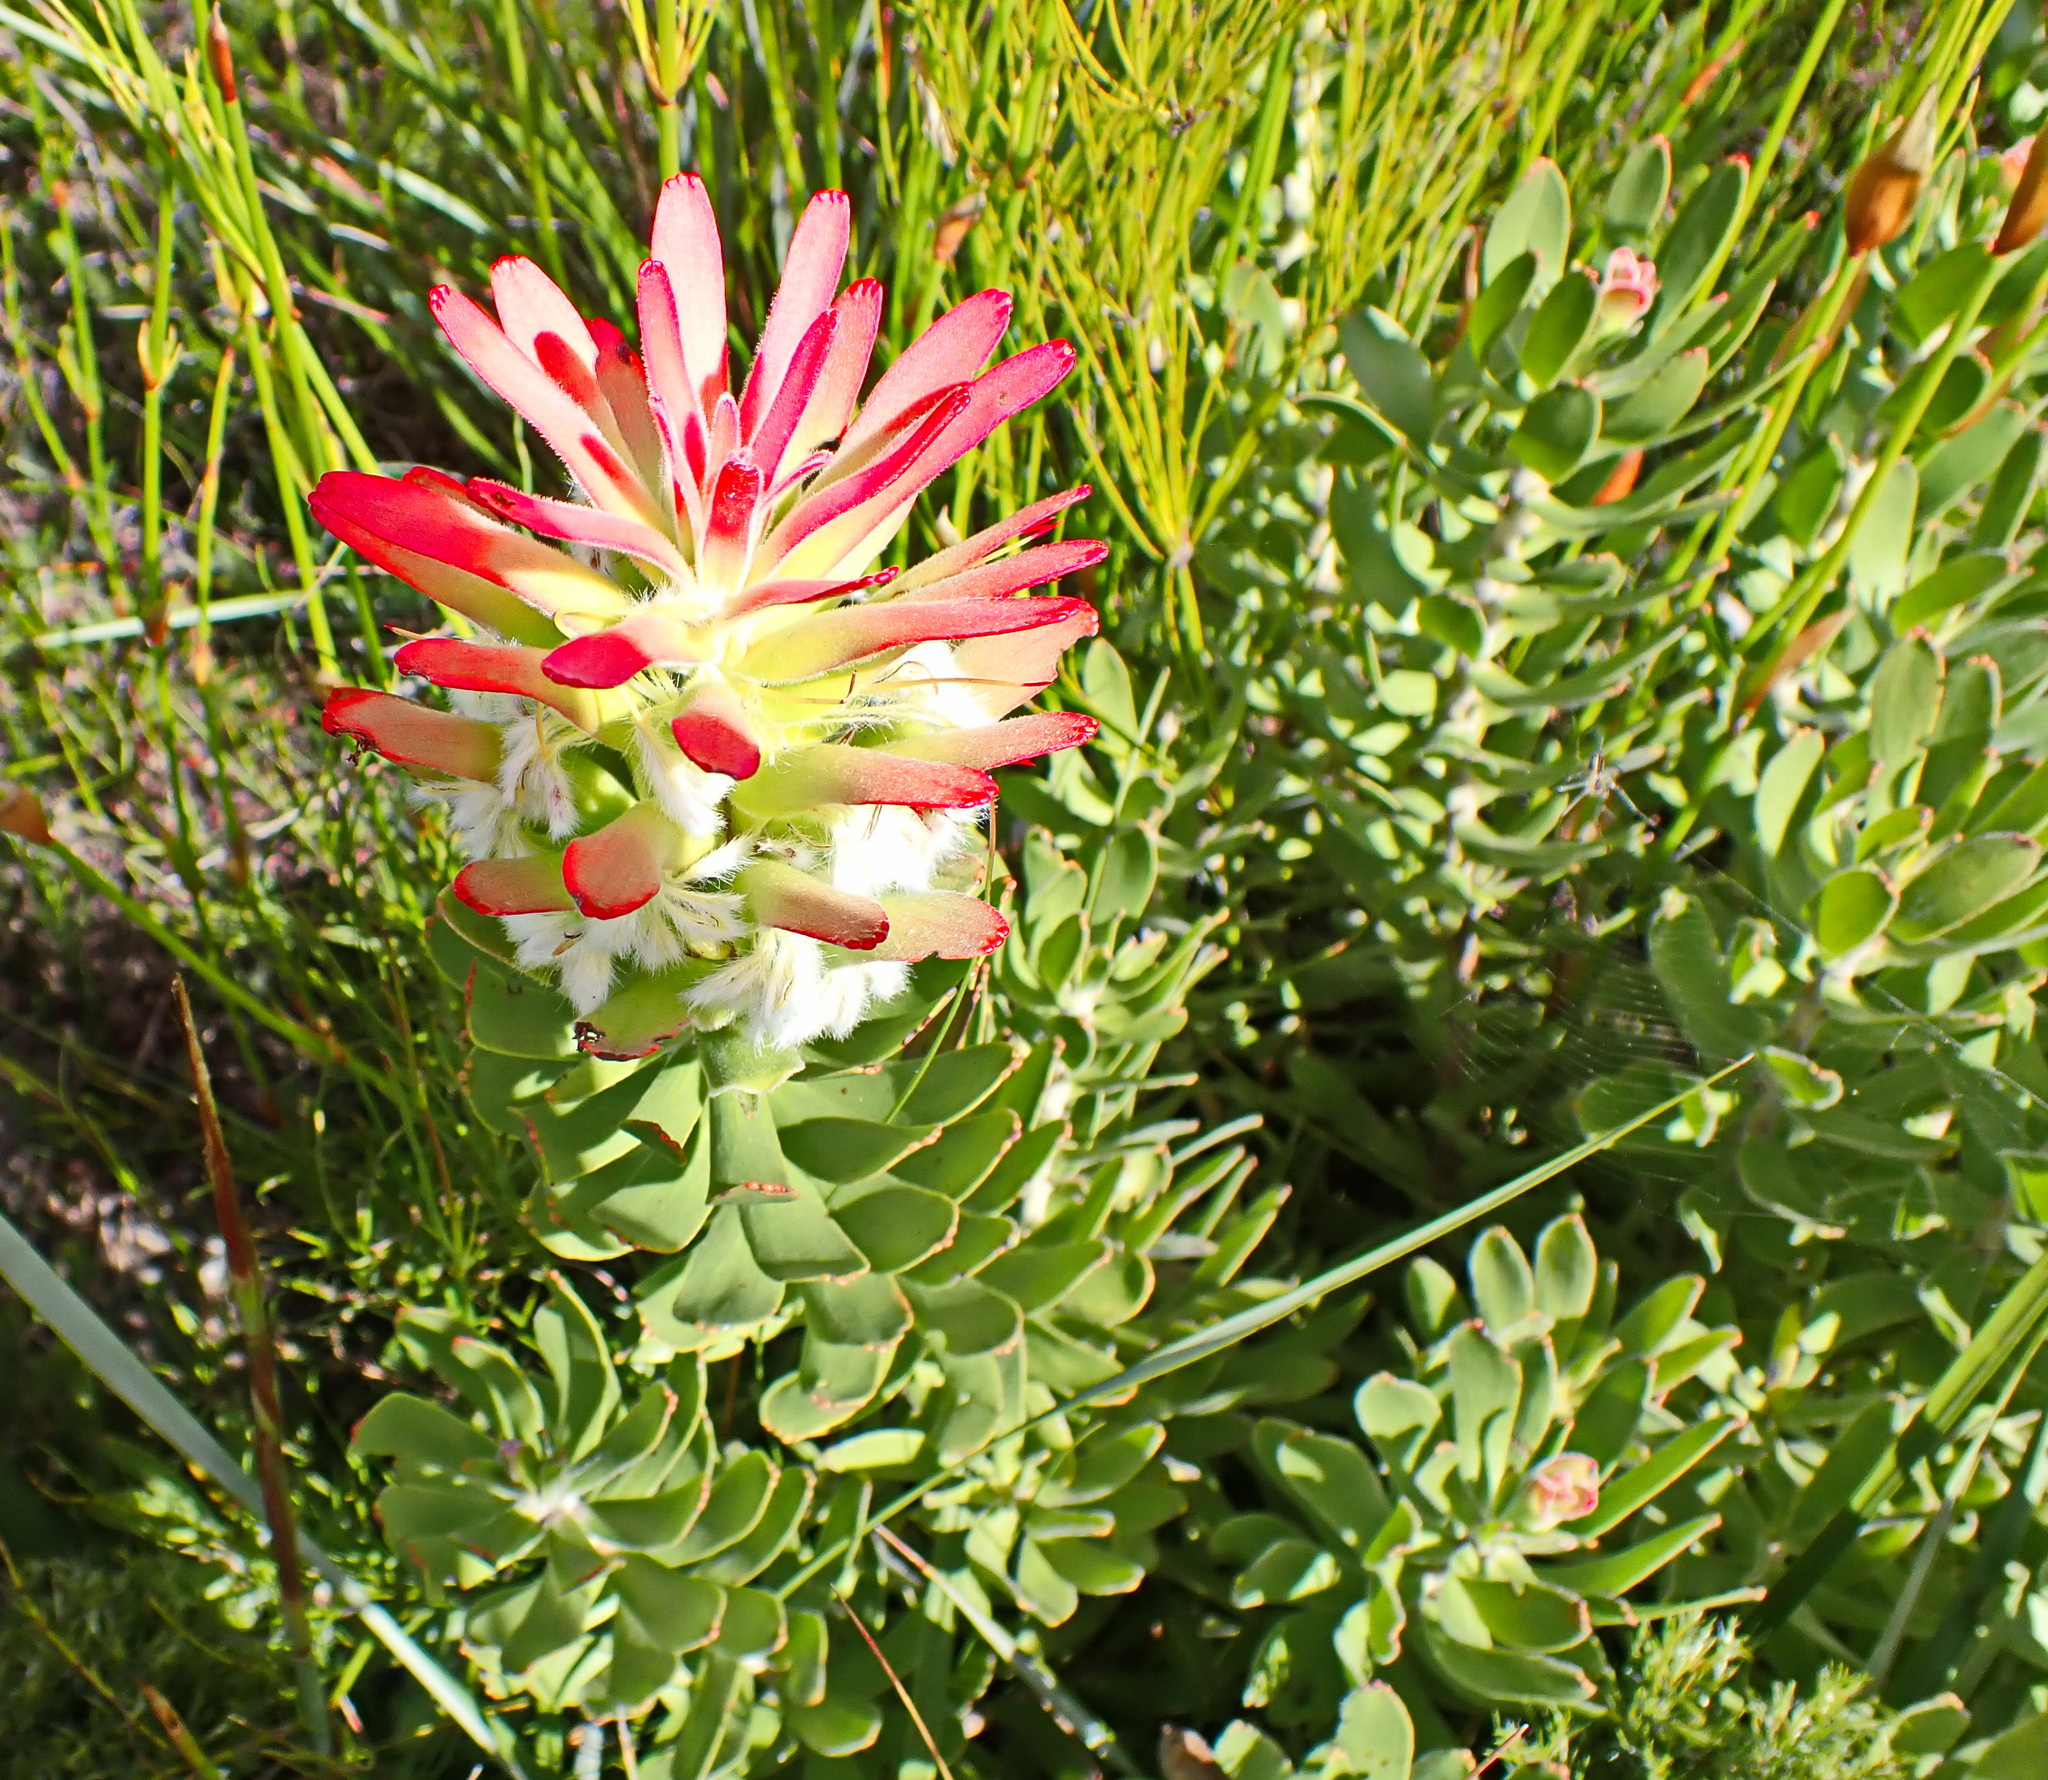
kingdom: Plantae
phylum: Tracheophyta
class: Magnoliopsida
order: Proteales
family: Proteaceae
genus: Mimetes
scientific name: Mimetes cucullatus
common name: Common pagoda
